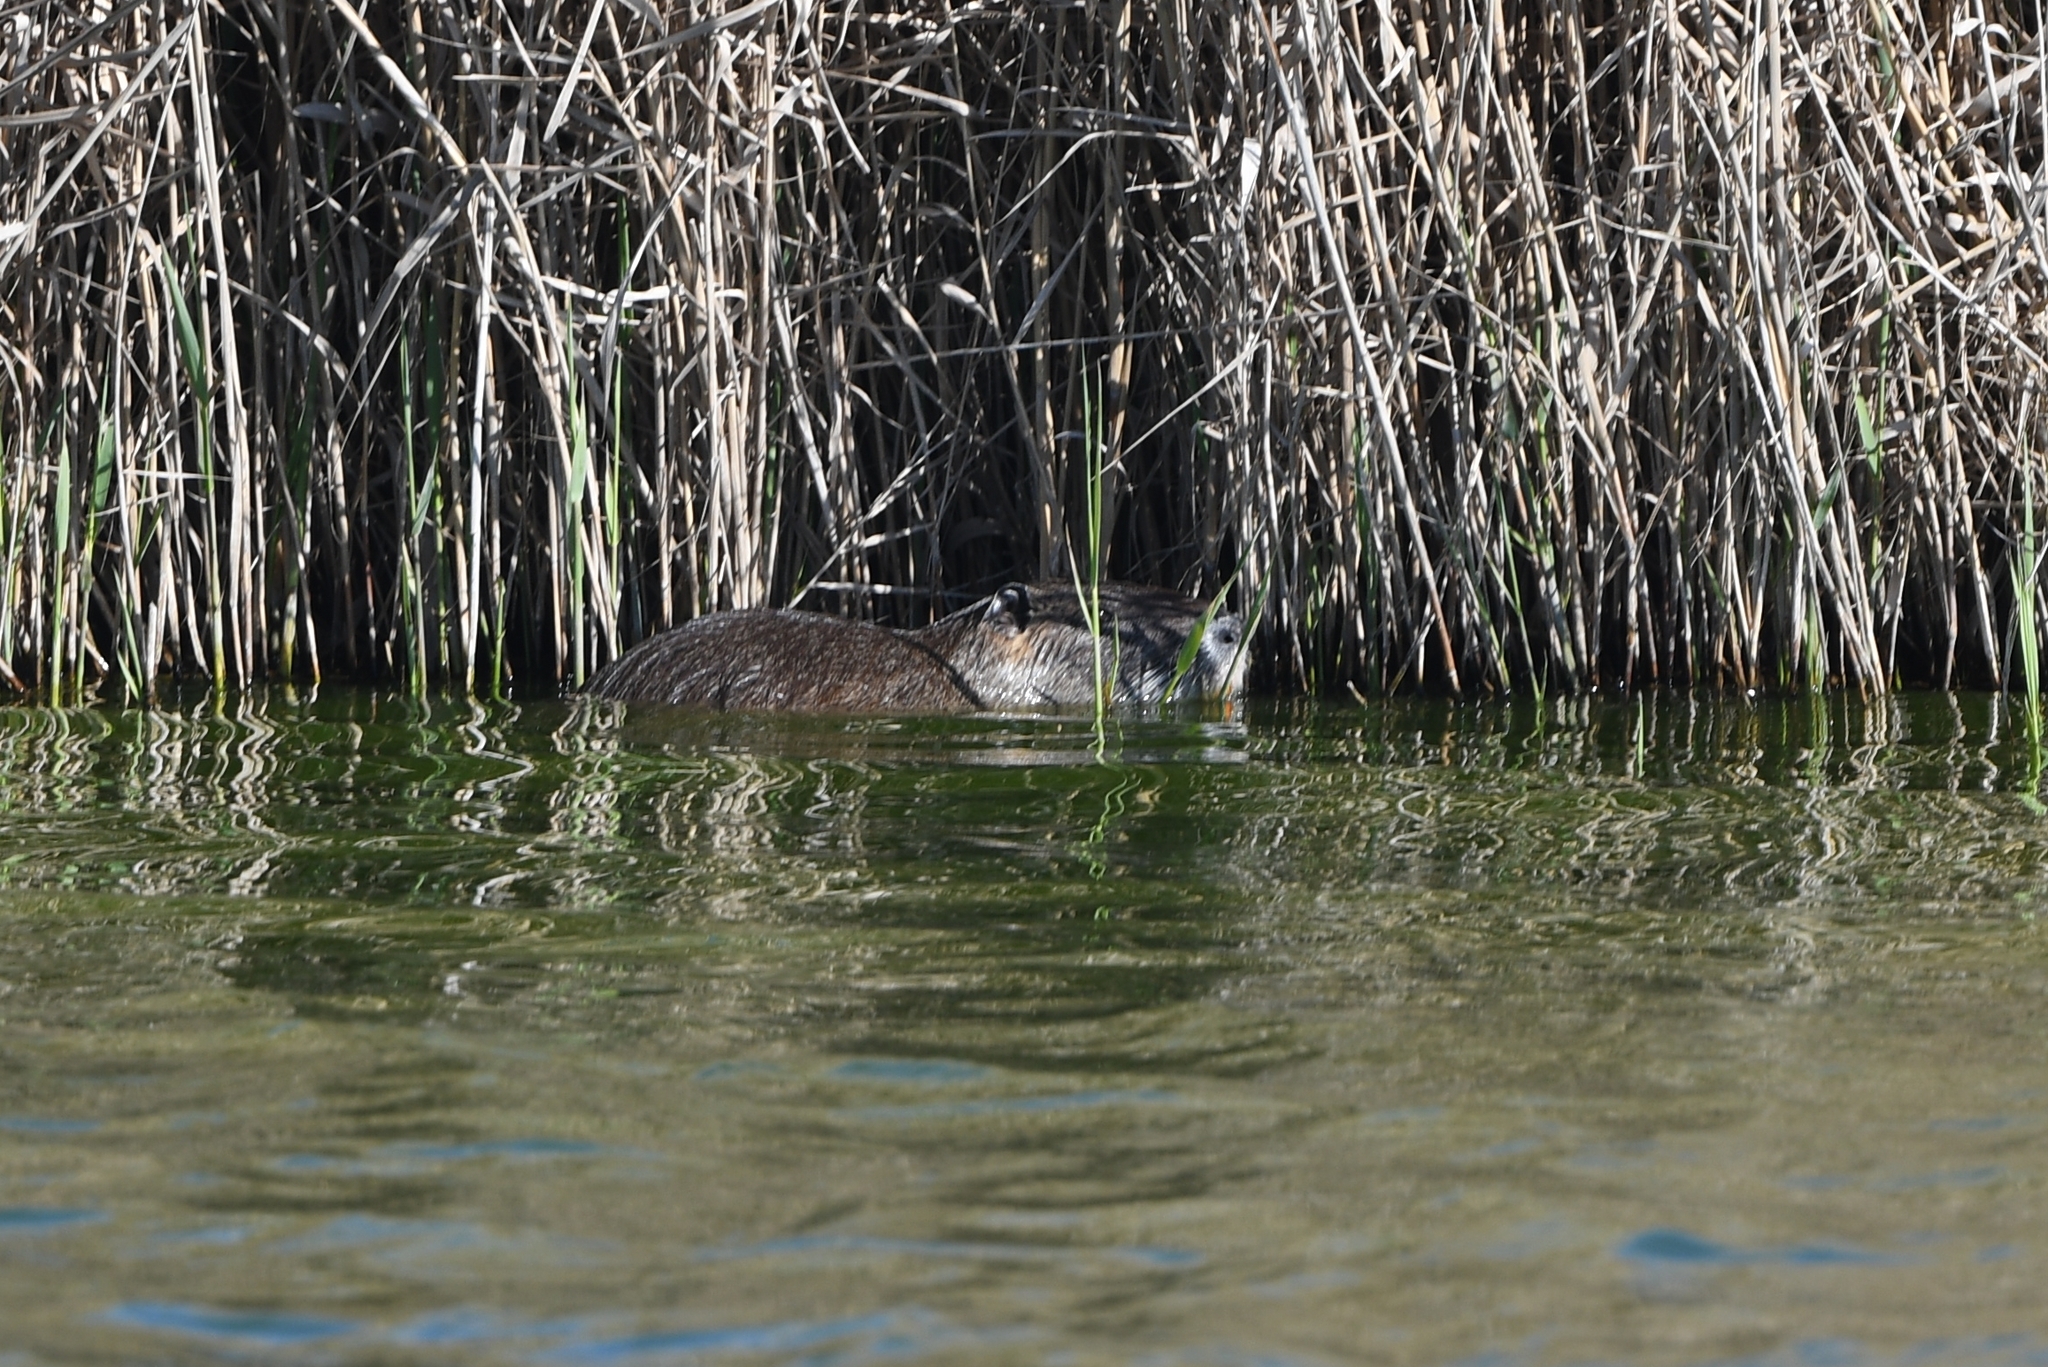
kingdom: Animalia
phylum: Chordata
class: Mammalia
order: Rodentia
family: Myocastoridae
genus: Myocastor
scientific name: Myocastor coypus
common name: Coypu
